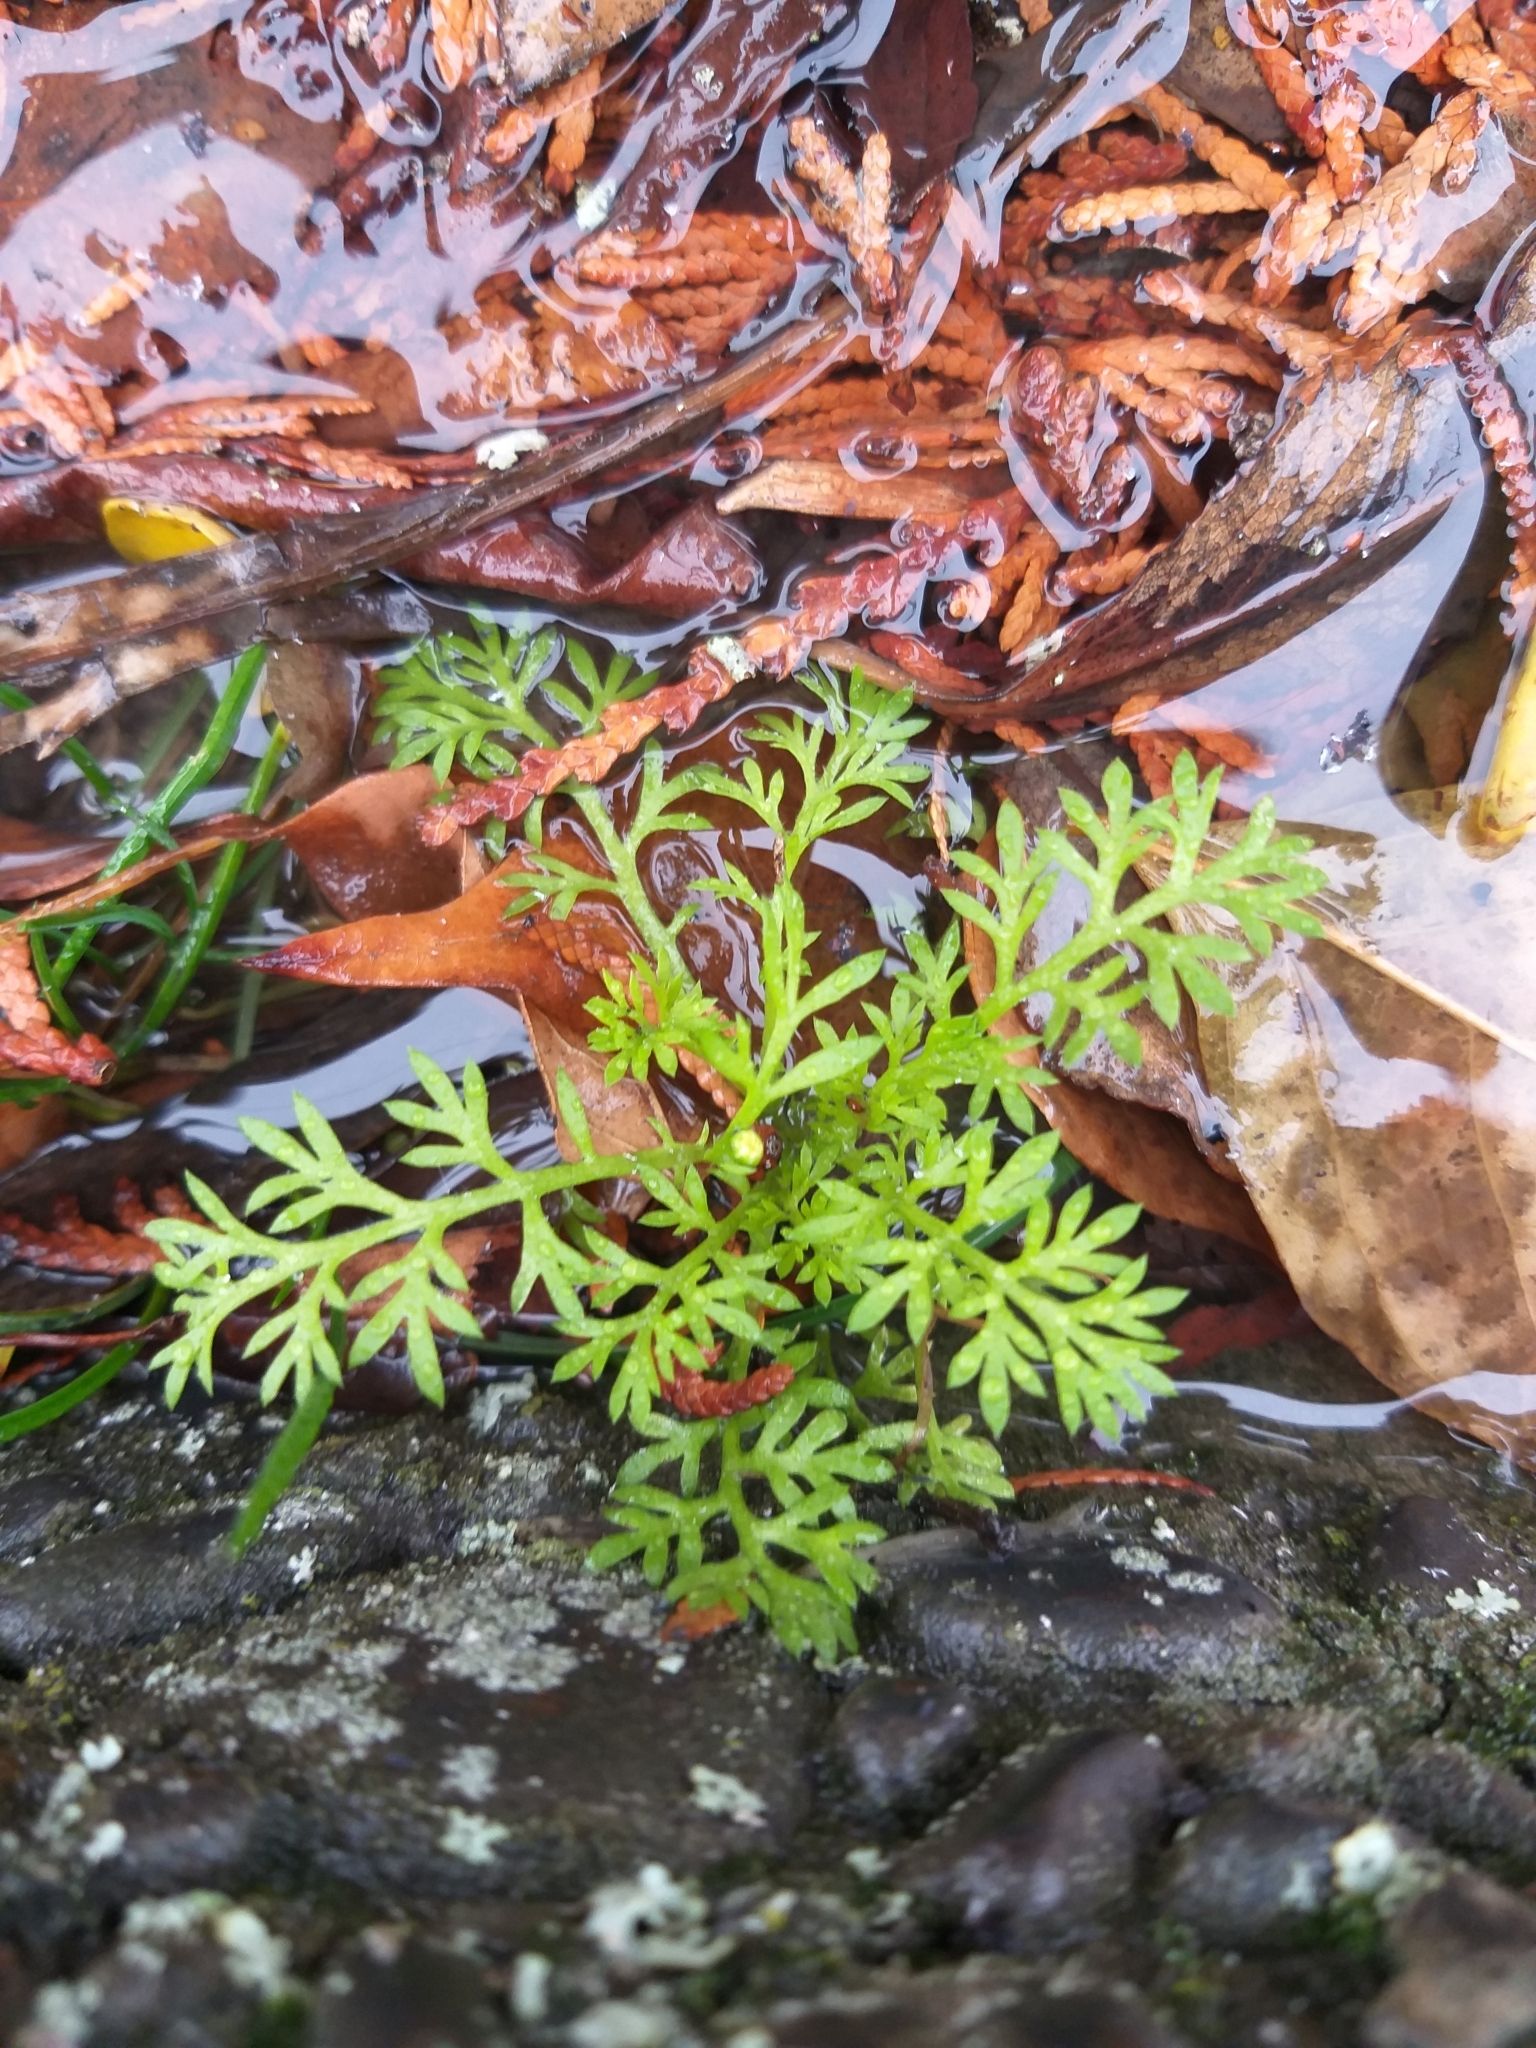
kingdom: Plantae
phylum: Tracheophyta
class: Magnoliopsida
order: Asterales
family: Asteraceae
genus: Cotula
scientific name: Cotula australis
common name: Australian waterbuttons
